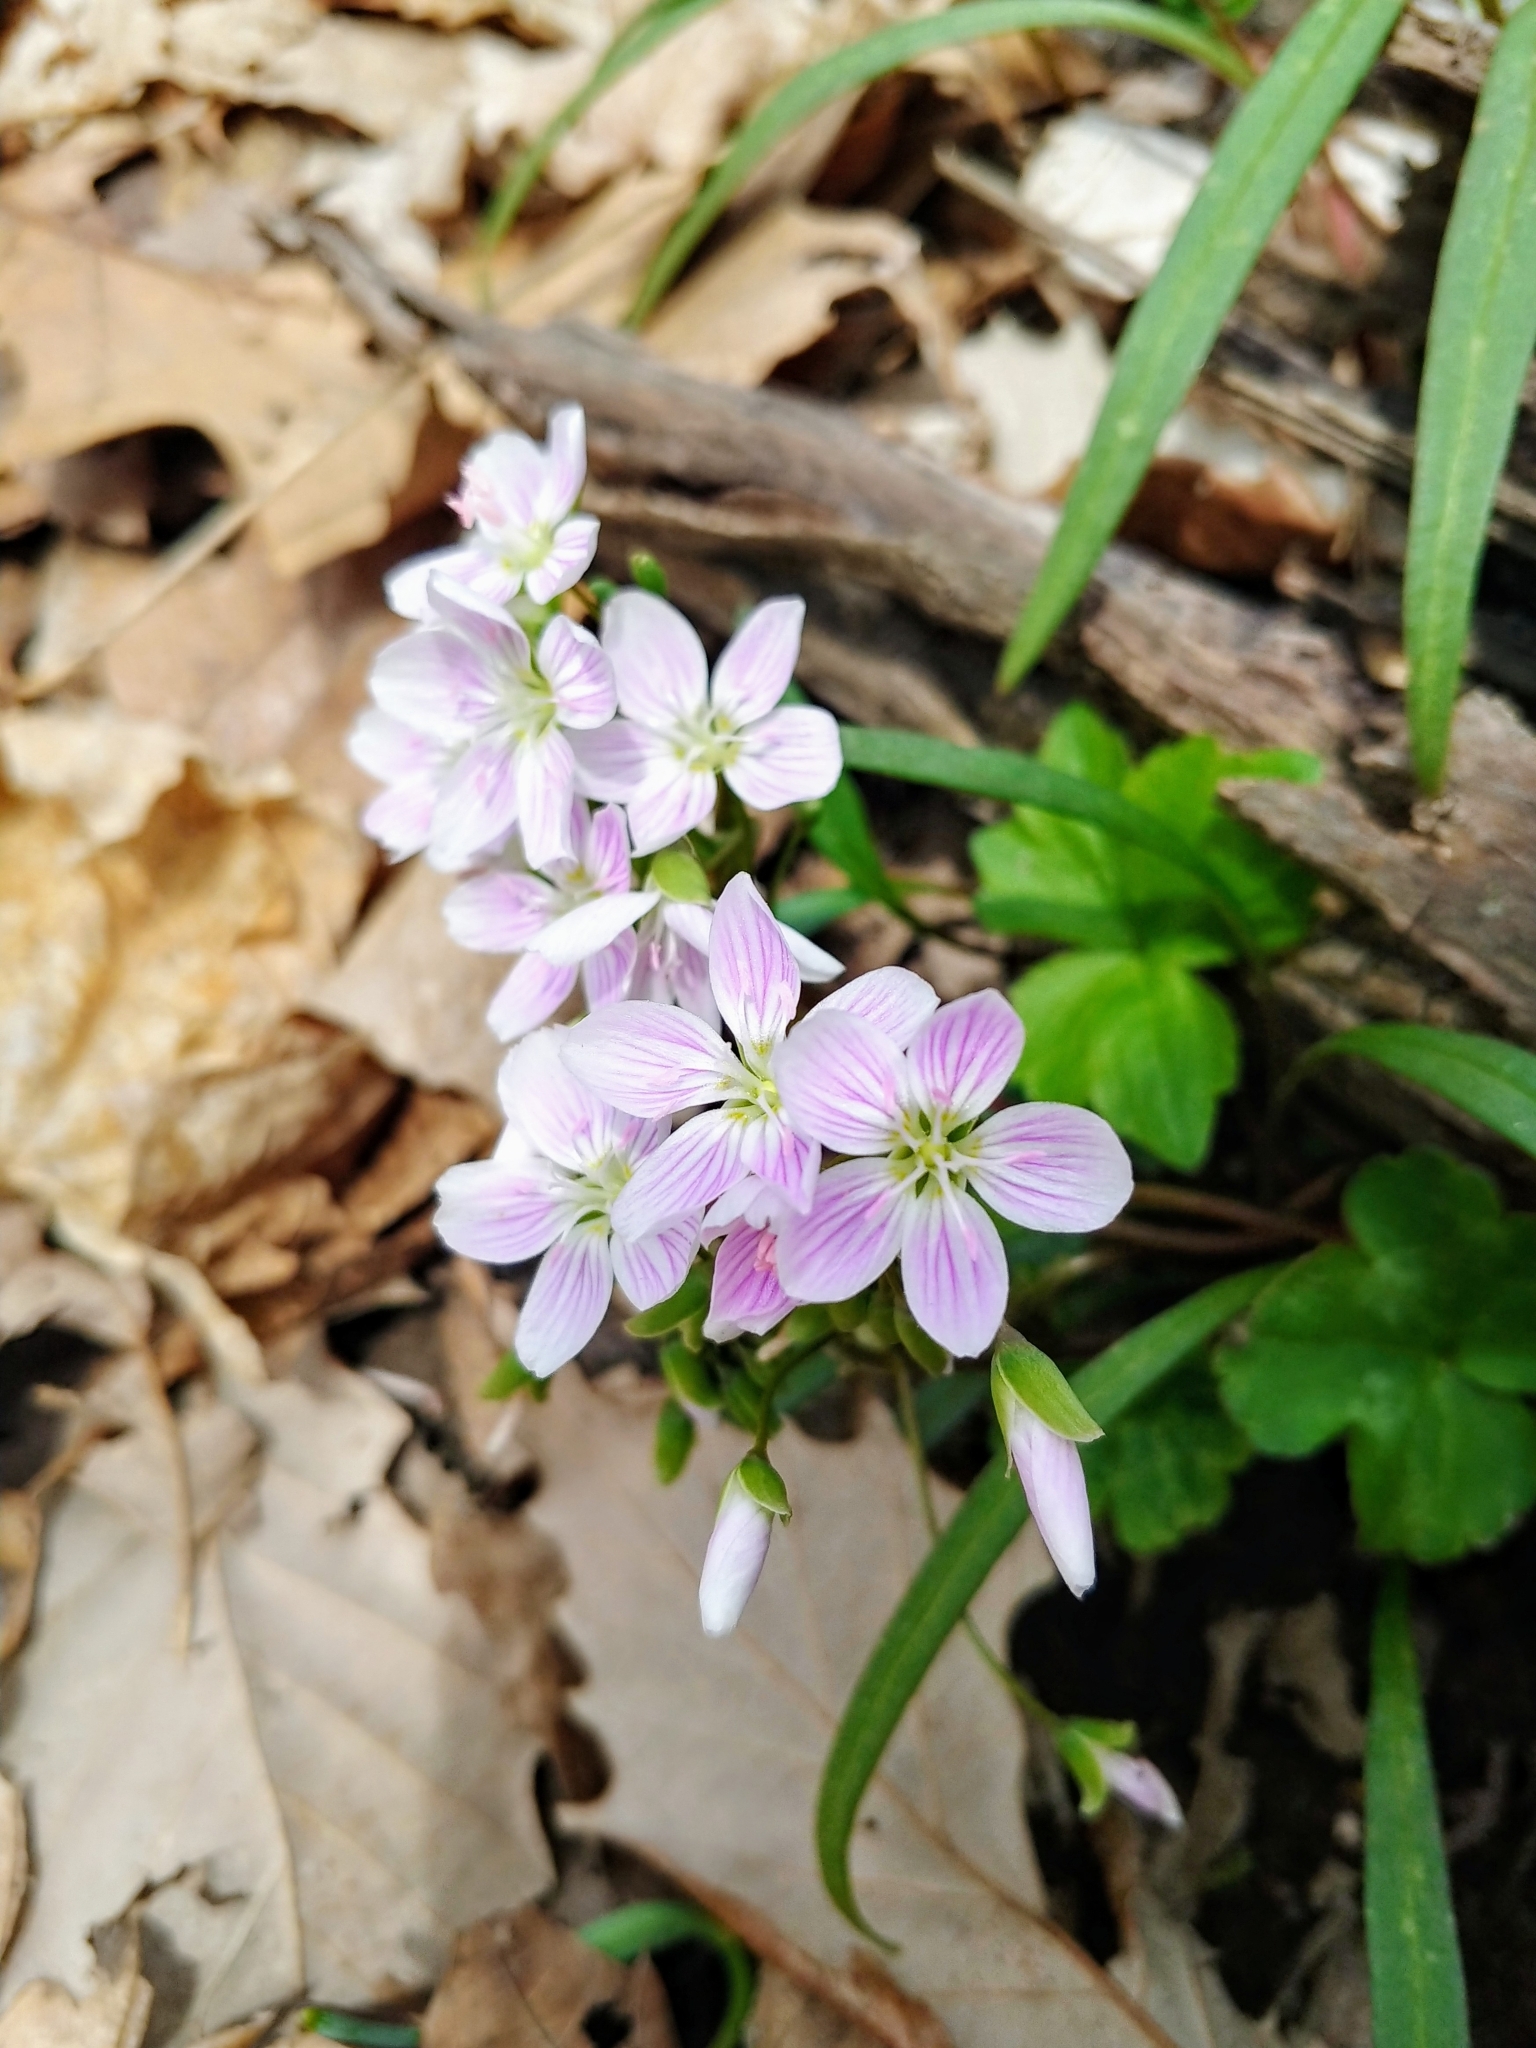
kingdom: Plantae
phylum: Tracheophyta
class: Magnoliopsida
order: Caryophyllales
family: Montiaceae
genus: Claytonia
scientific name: Claytonia virginica
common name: Virginia springbeauty
